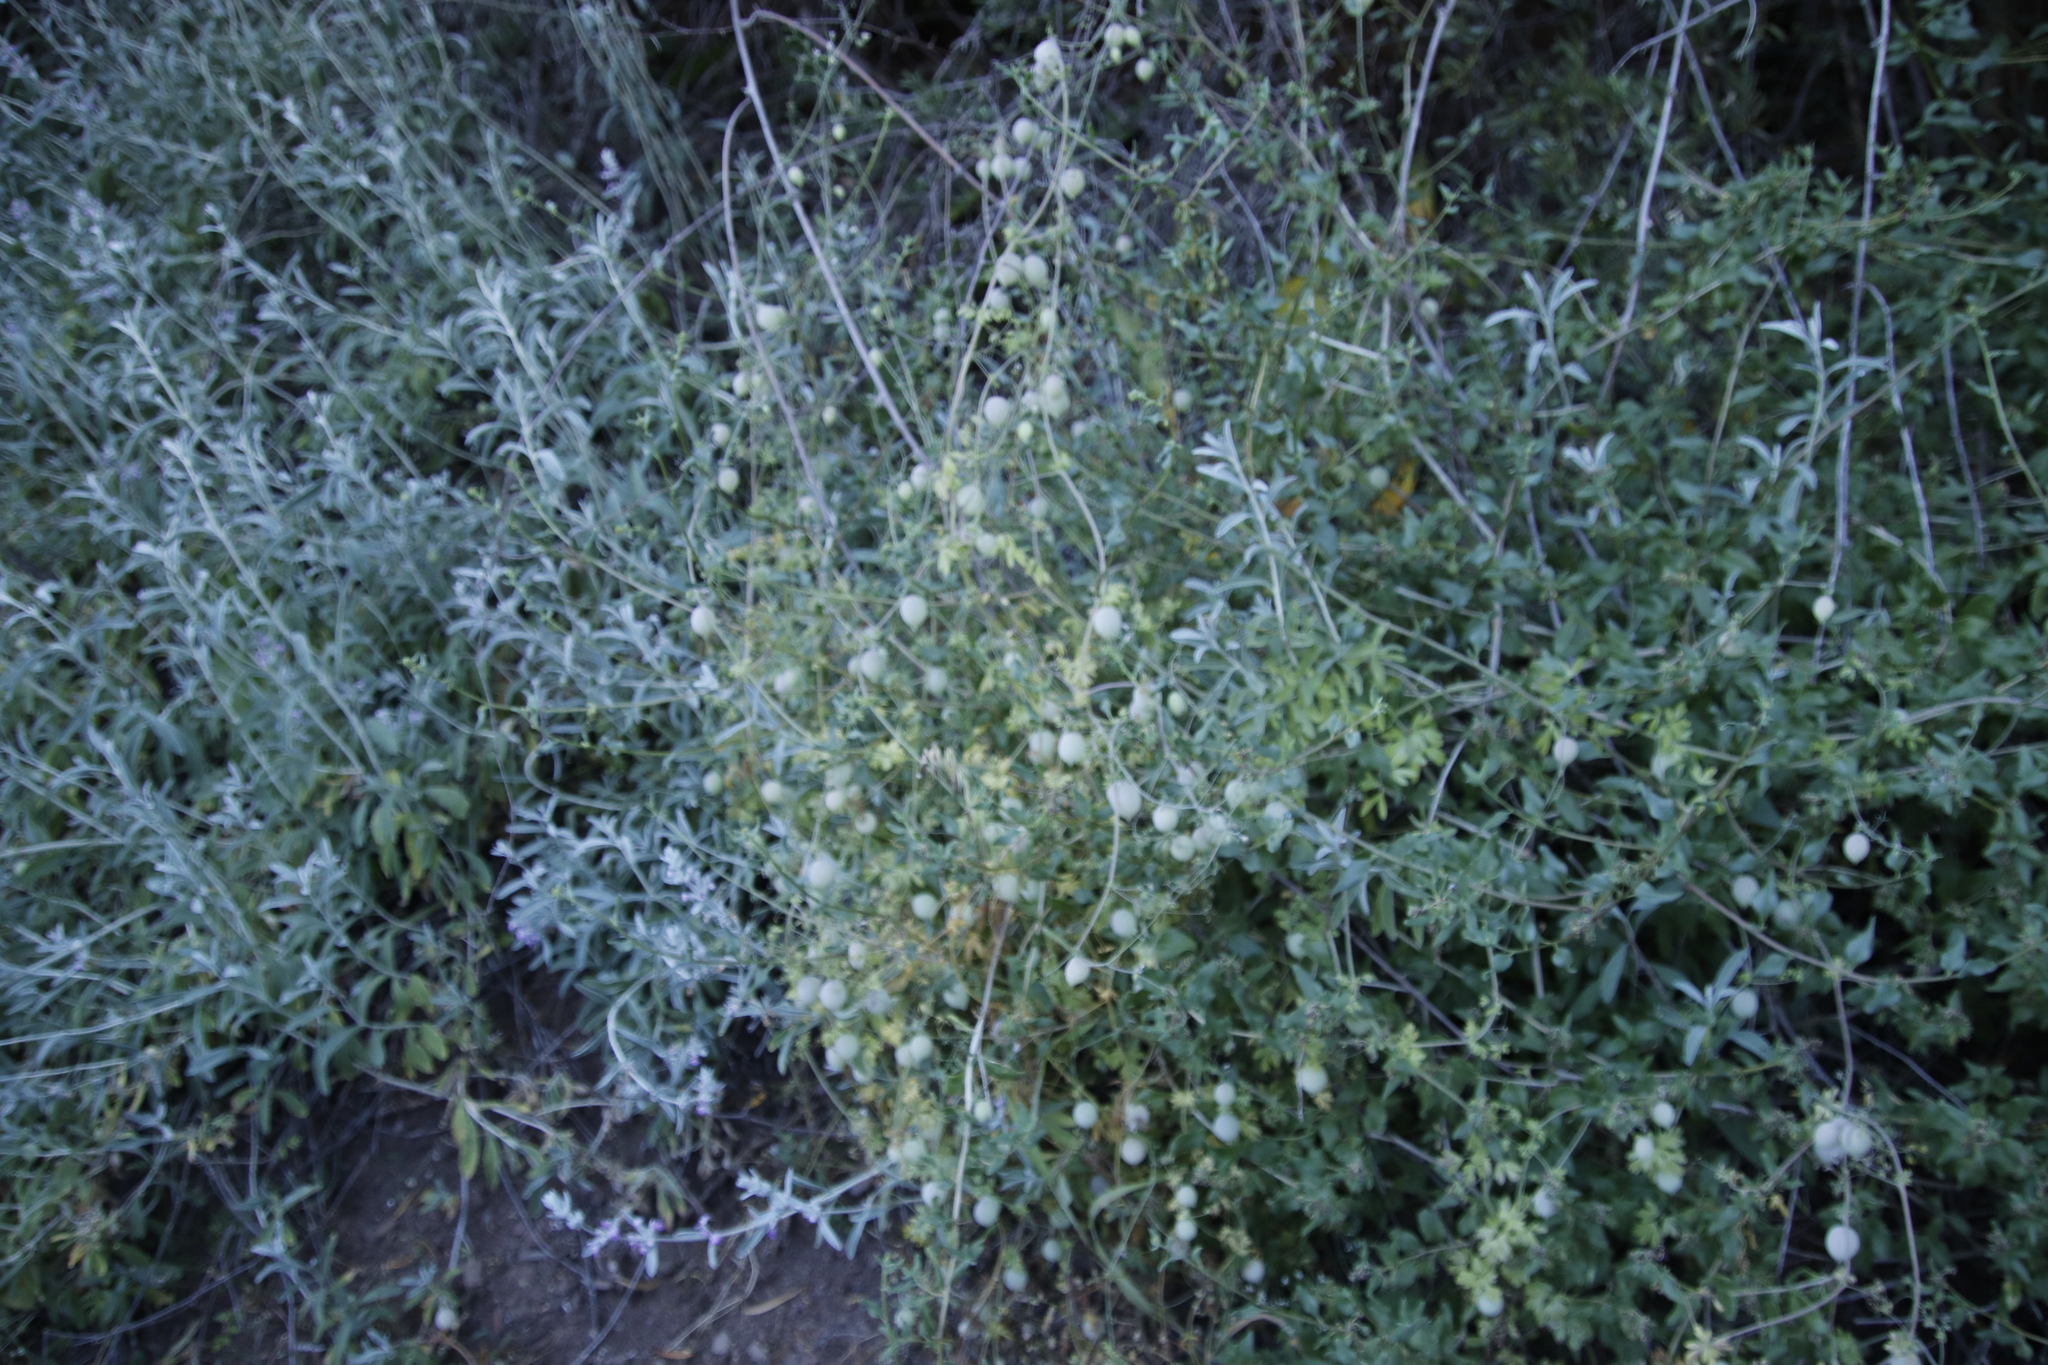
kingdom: Plantae
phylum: Tracheophyta
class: Magnoliopsida
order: Ranunculales
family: Papaveraceae
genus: Cysticapnos
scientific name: Cysticapnos vesicaria
